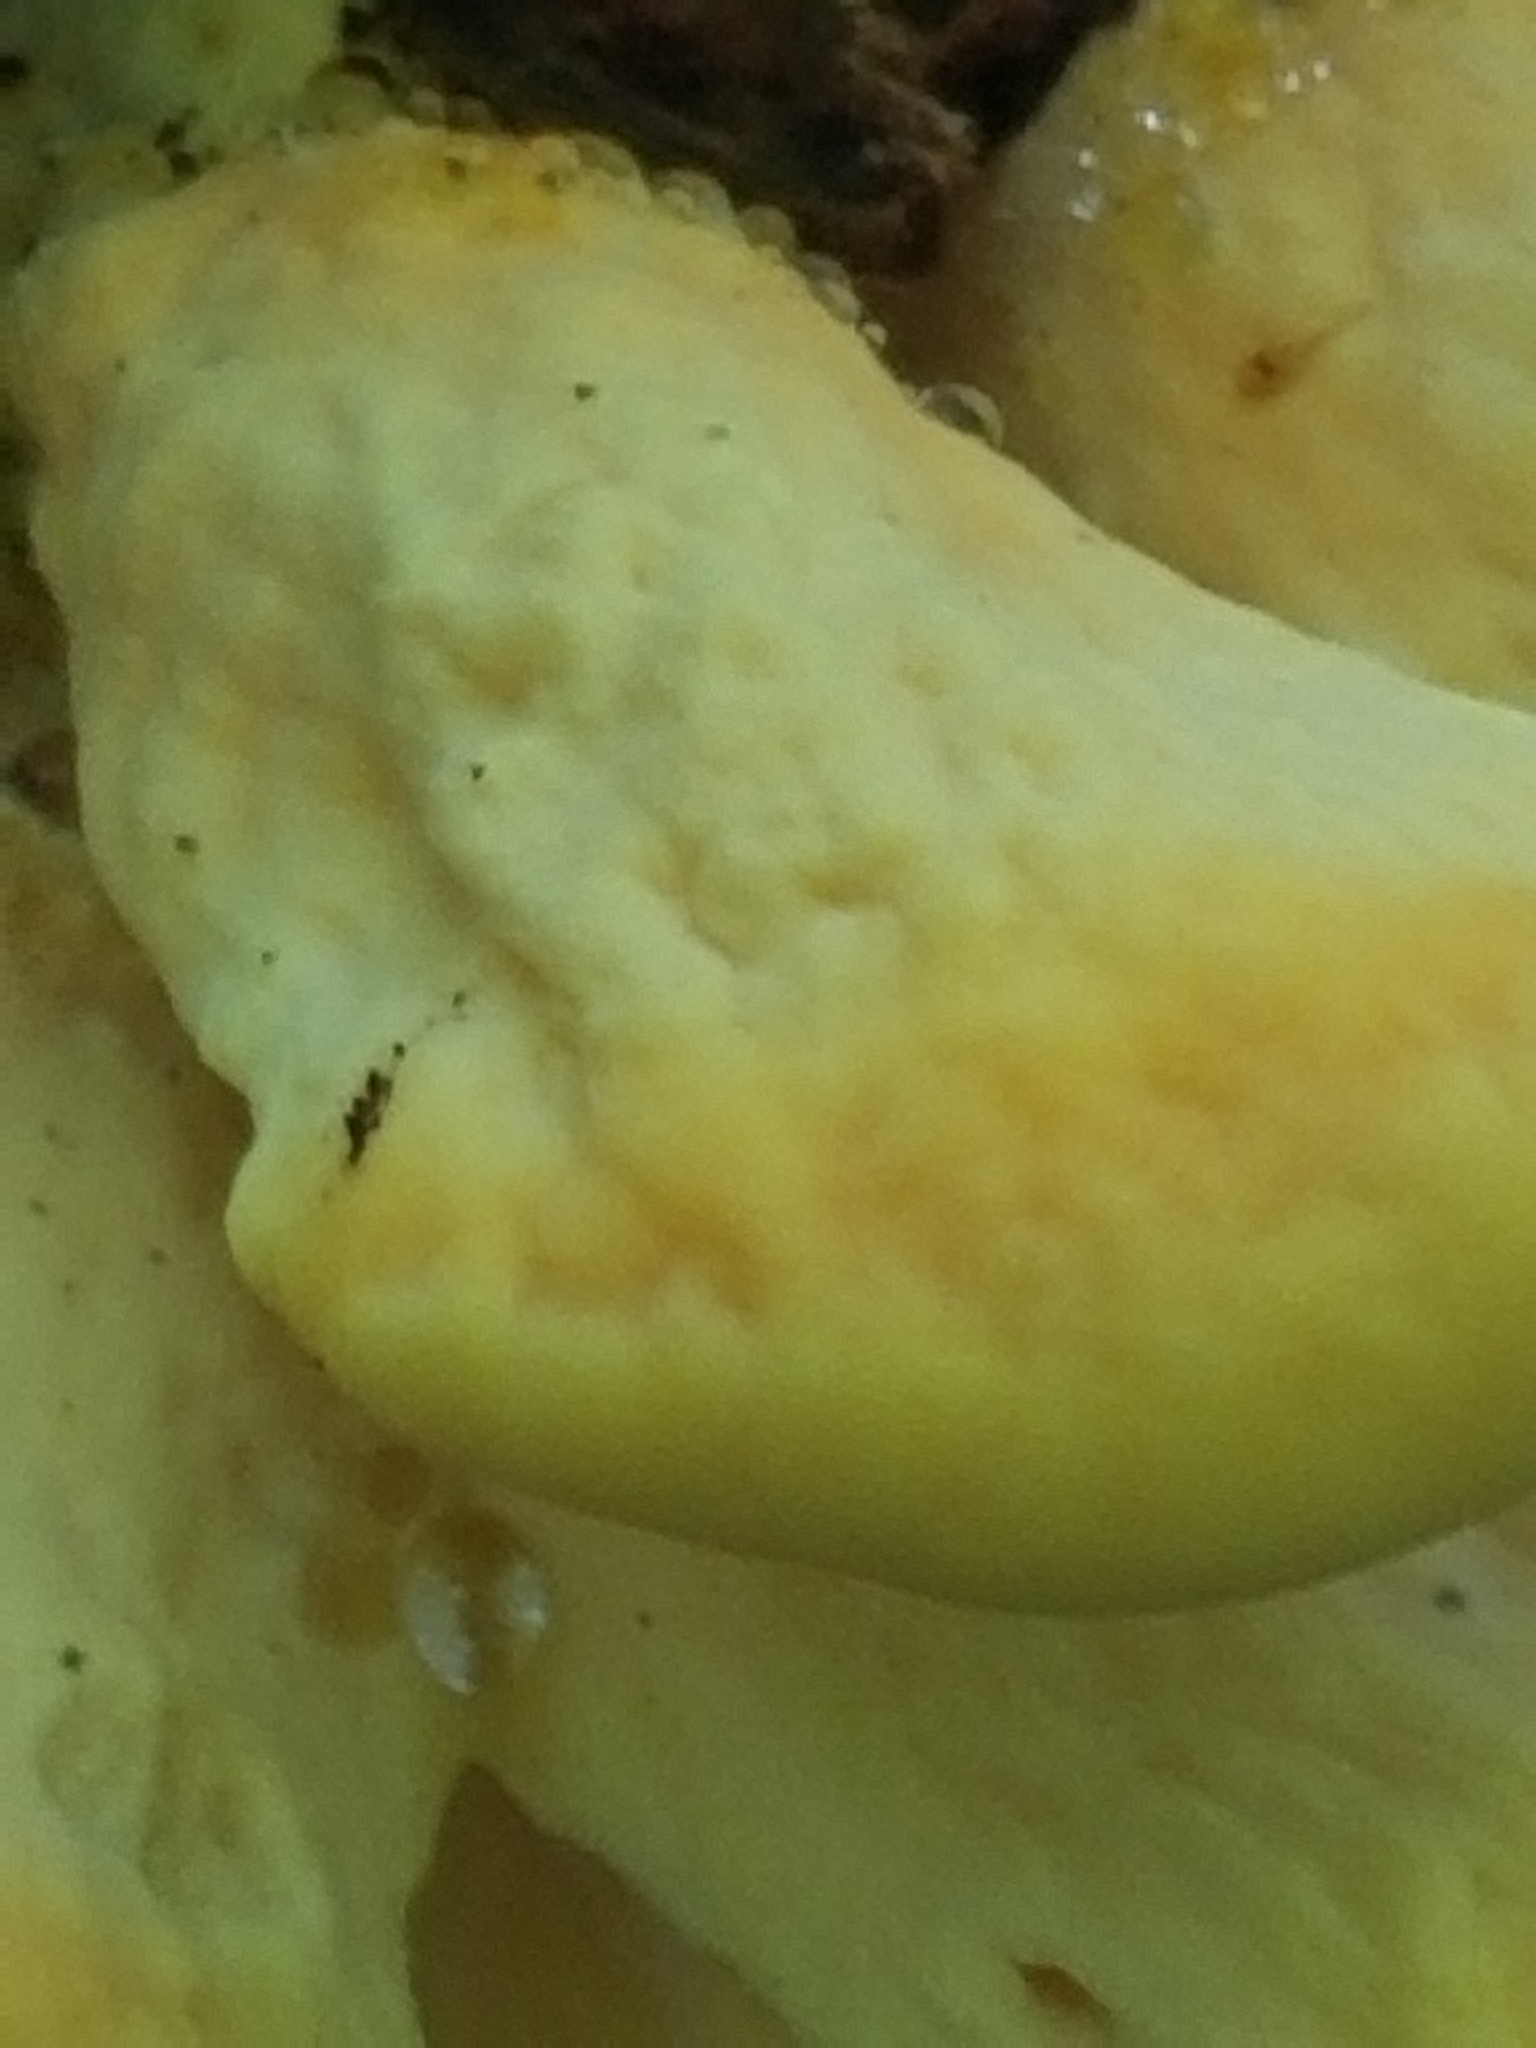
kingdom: Fungi
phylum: Basidiomycota
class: Agaricomycetes
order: Polyporales
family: Laetiporaceae
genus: Laetiporus
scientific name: Laetiporus sulphureus
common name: Chicken of the woods
